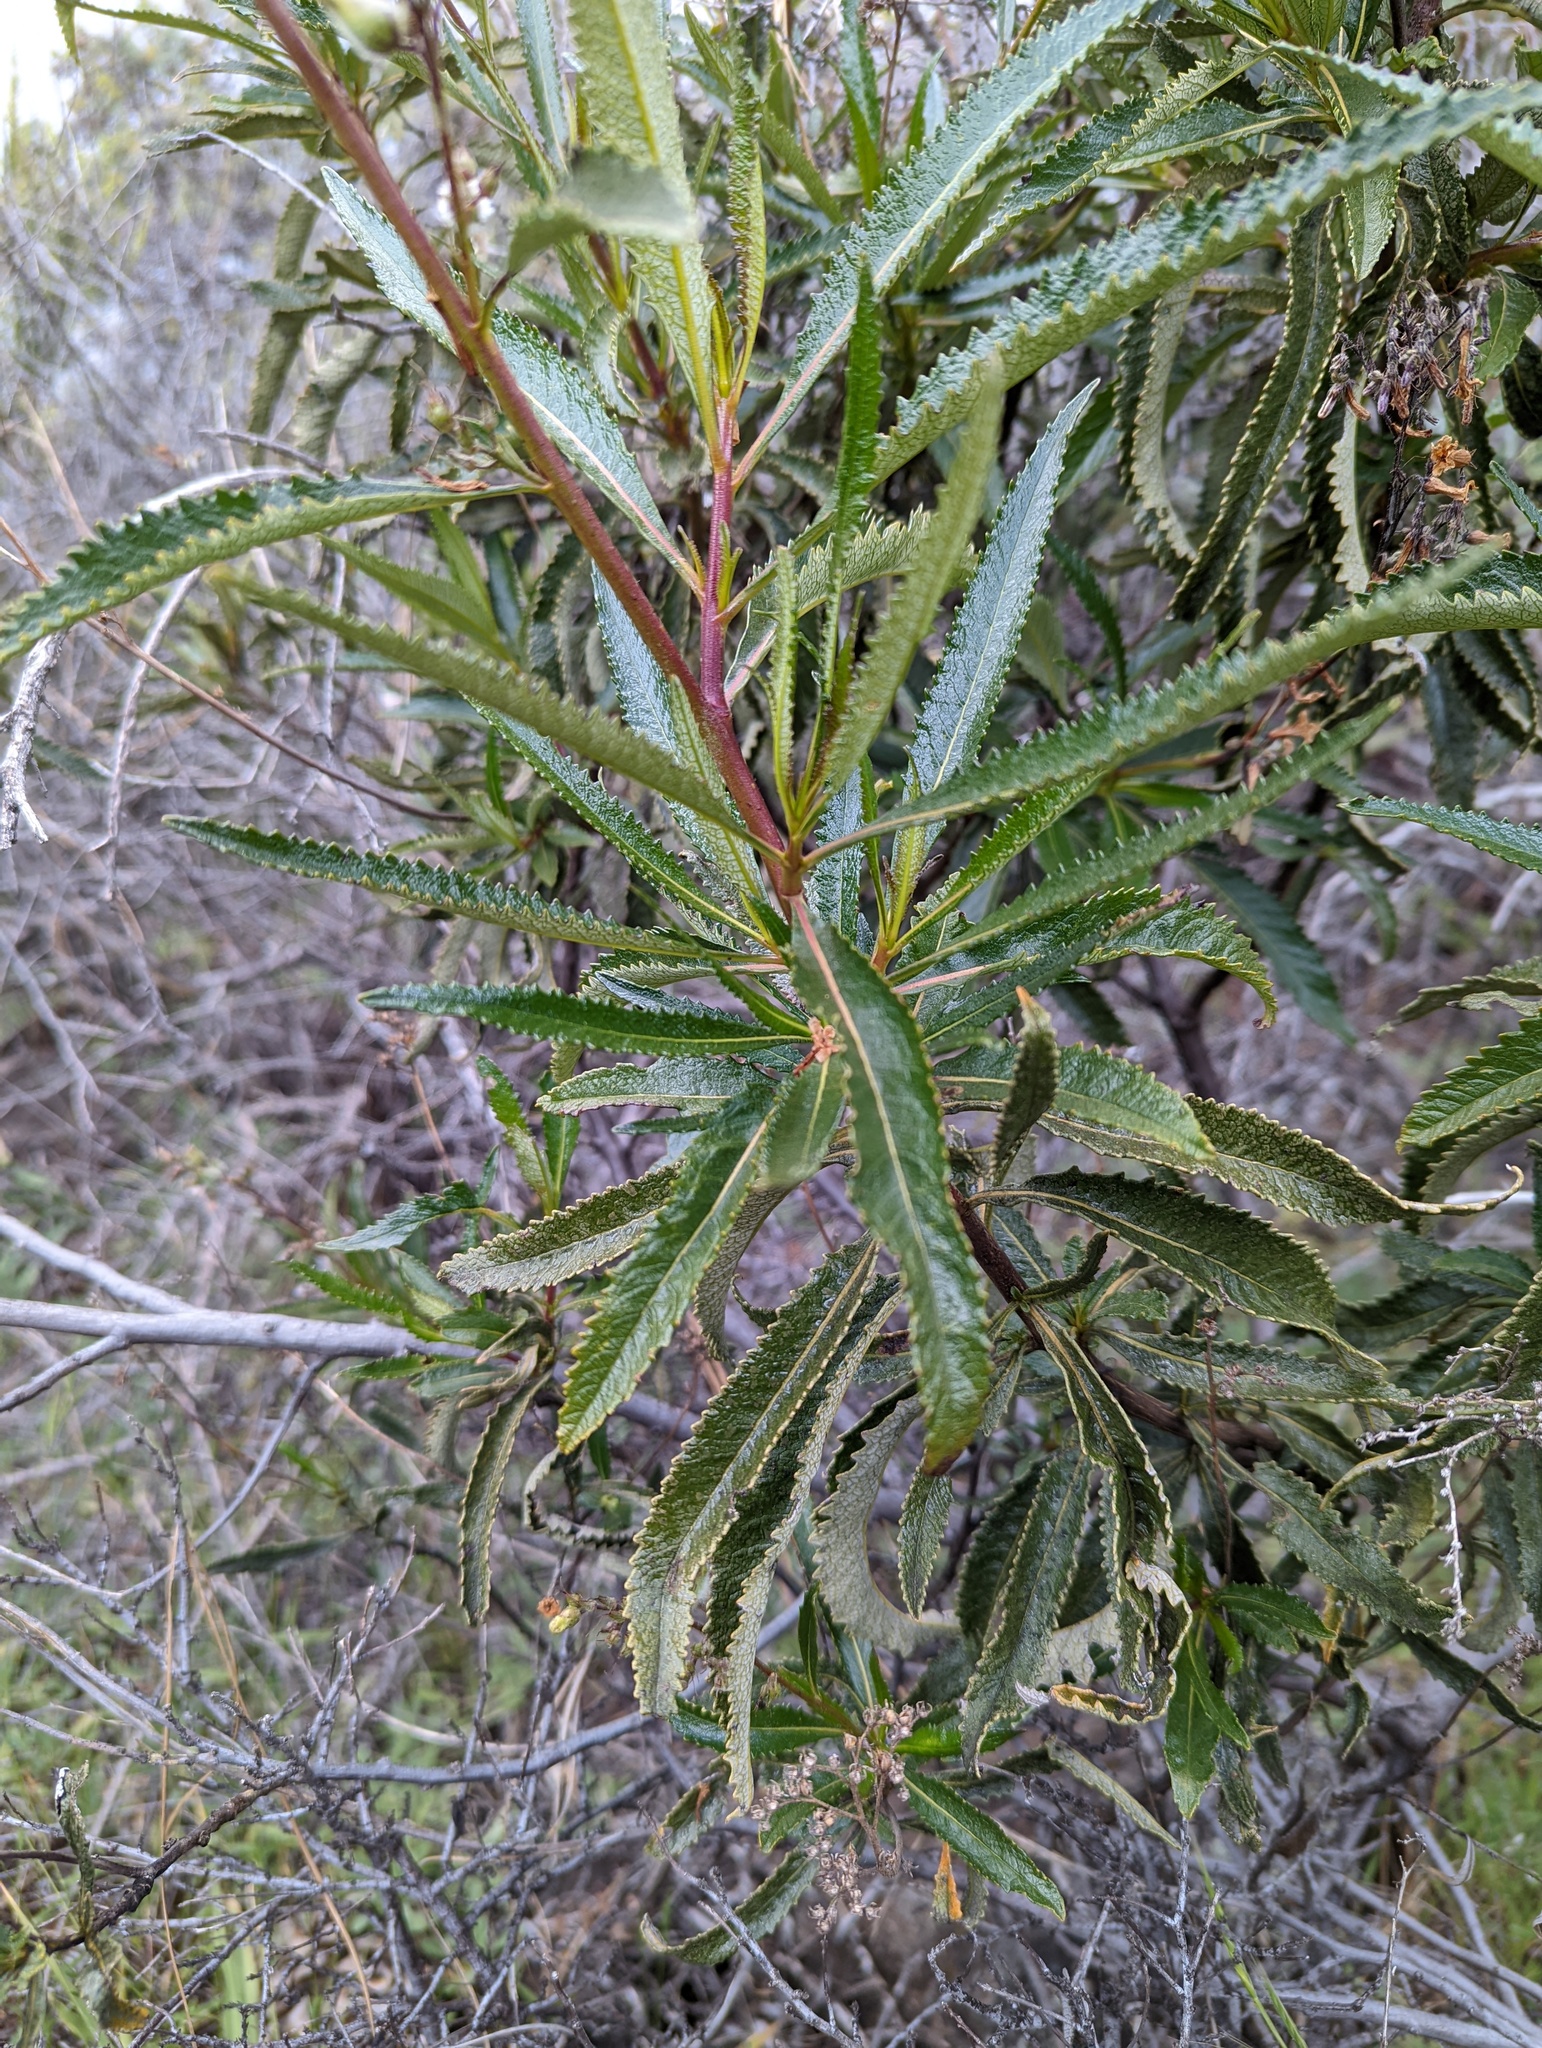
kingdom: Plantae
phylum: Tracheophyta
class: Magnoliopsida
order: Boraginales
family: Namaceae
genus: Eriodictyon
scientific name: Eriodictyon californicum
